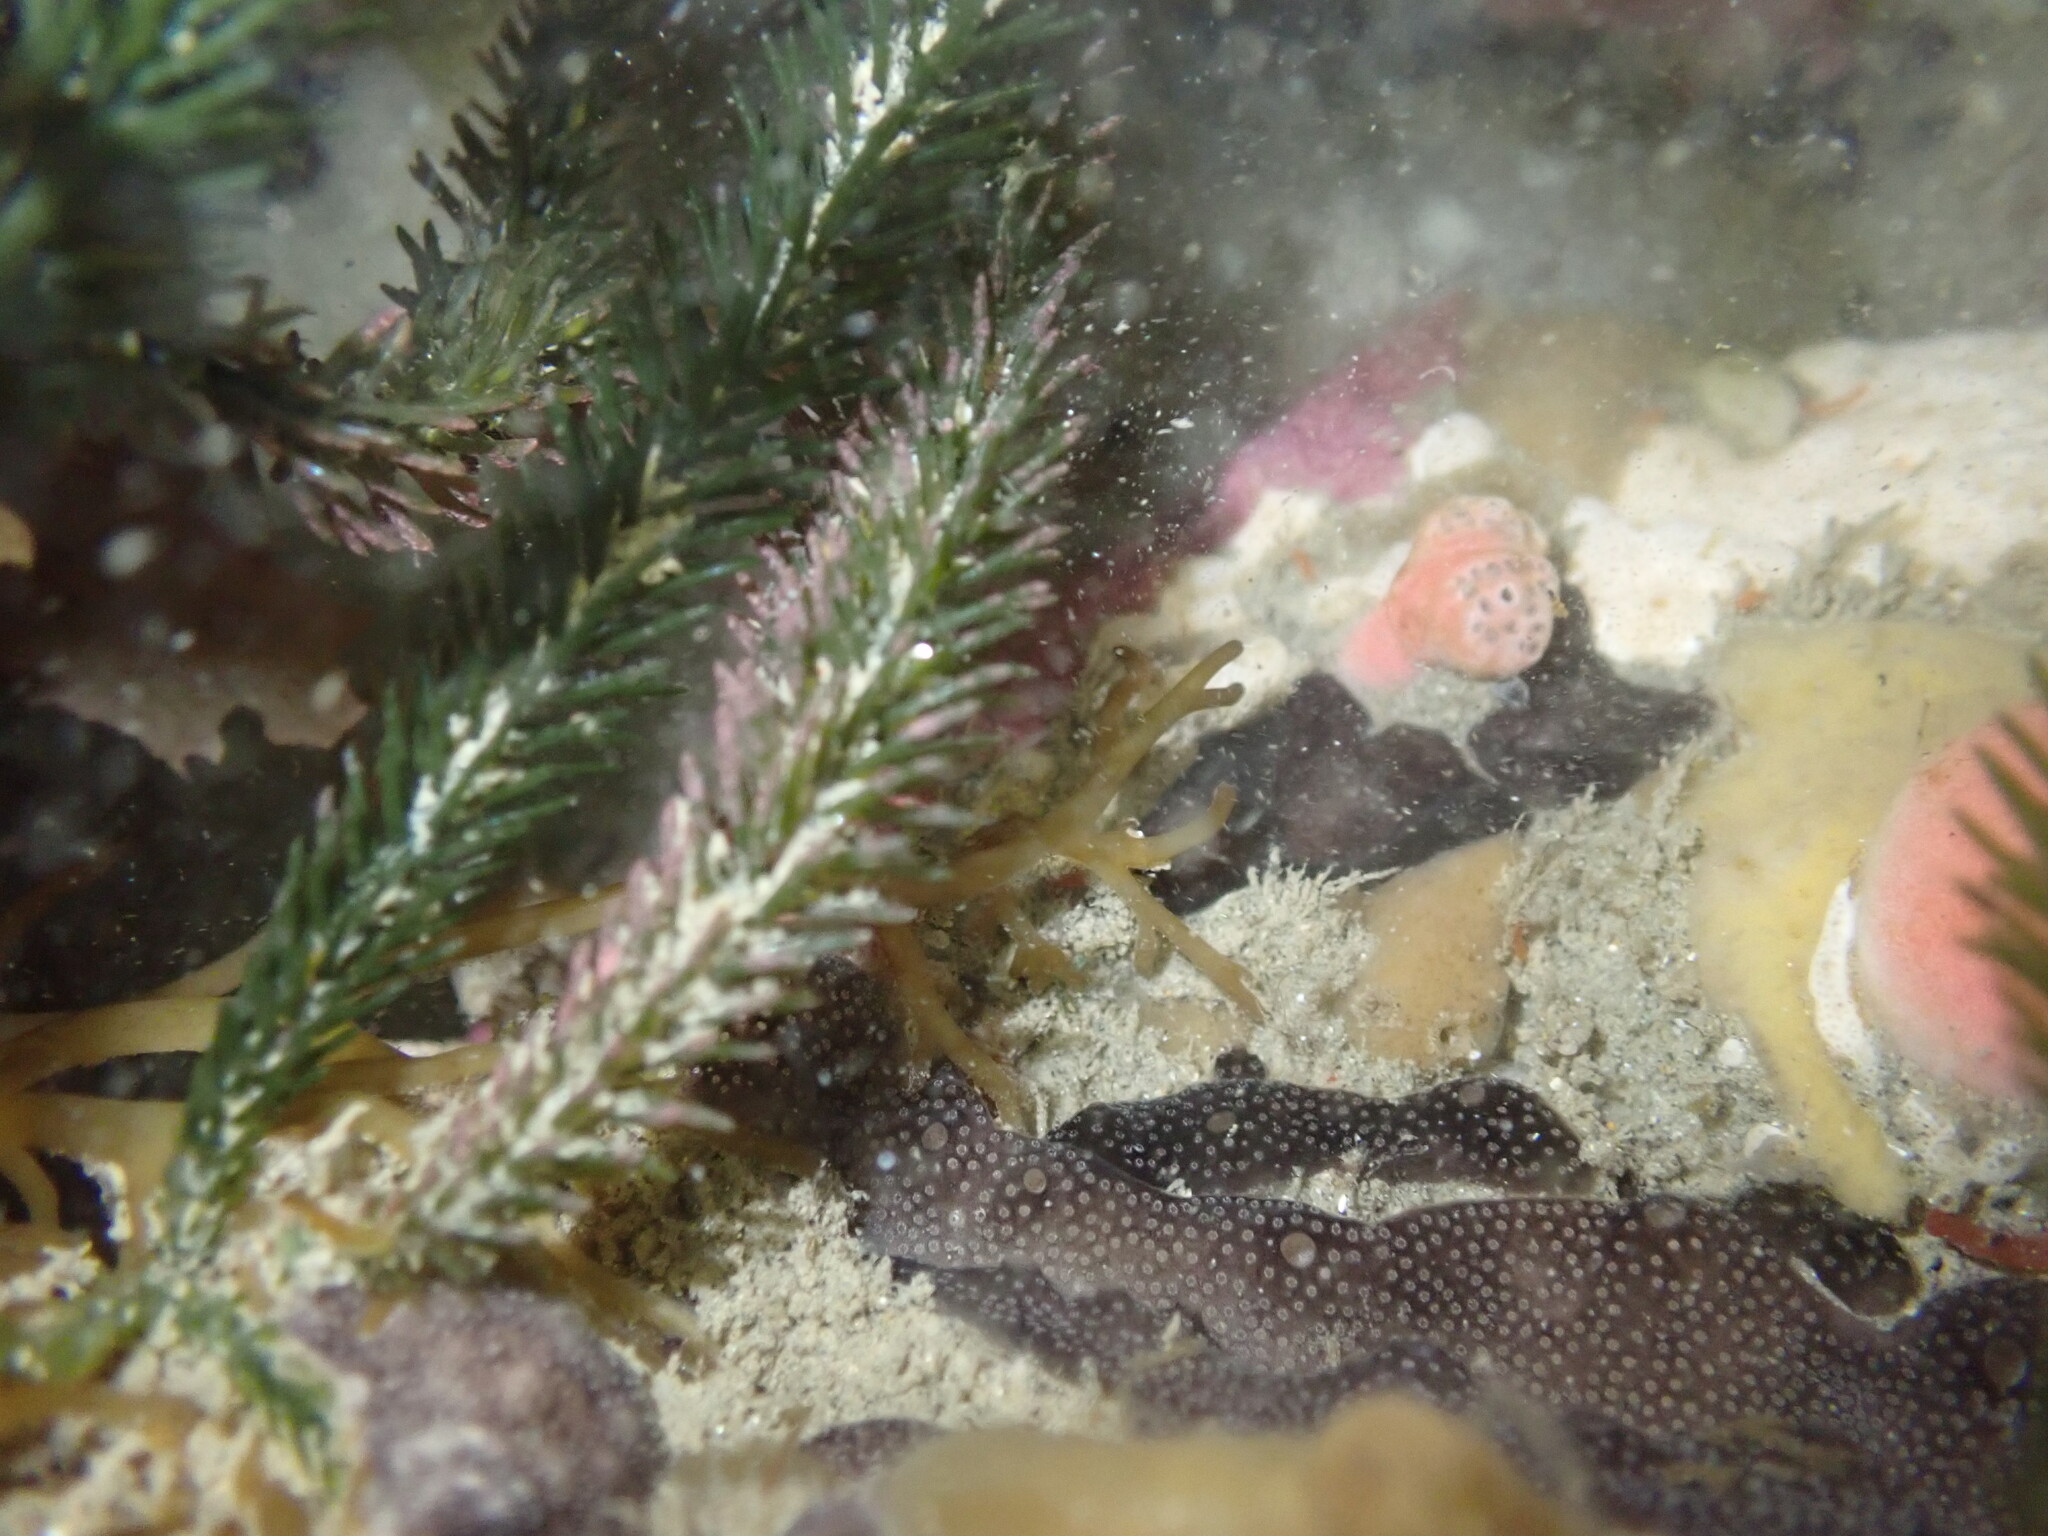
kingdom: Plantae
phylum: Chlorophyta
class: Ulvophyceae
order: Bryopsidales
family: Caulerpaceae
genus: Caulerpa
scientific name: Caulerpa brownii
